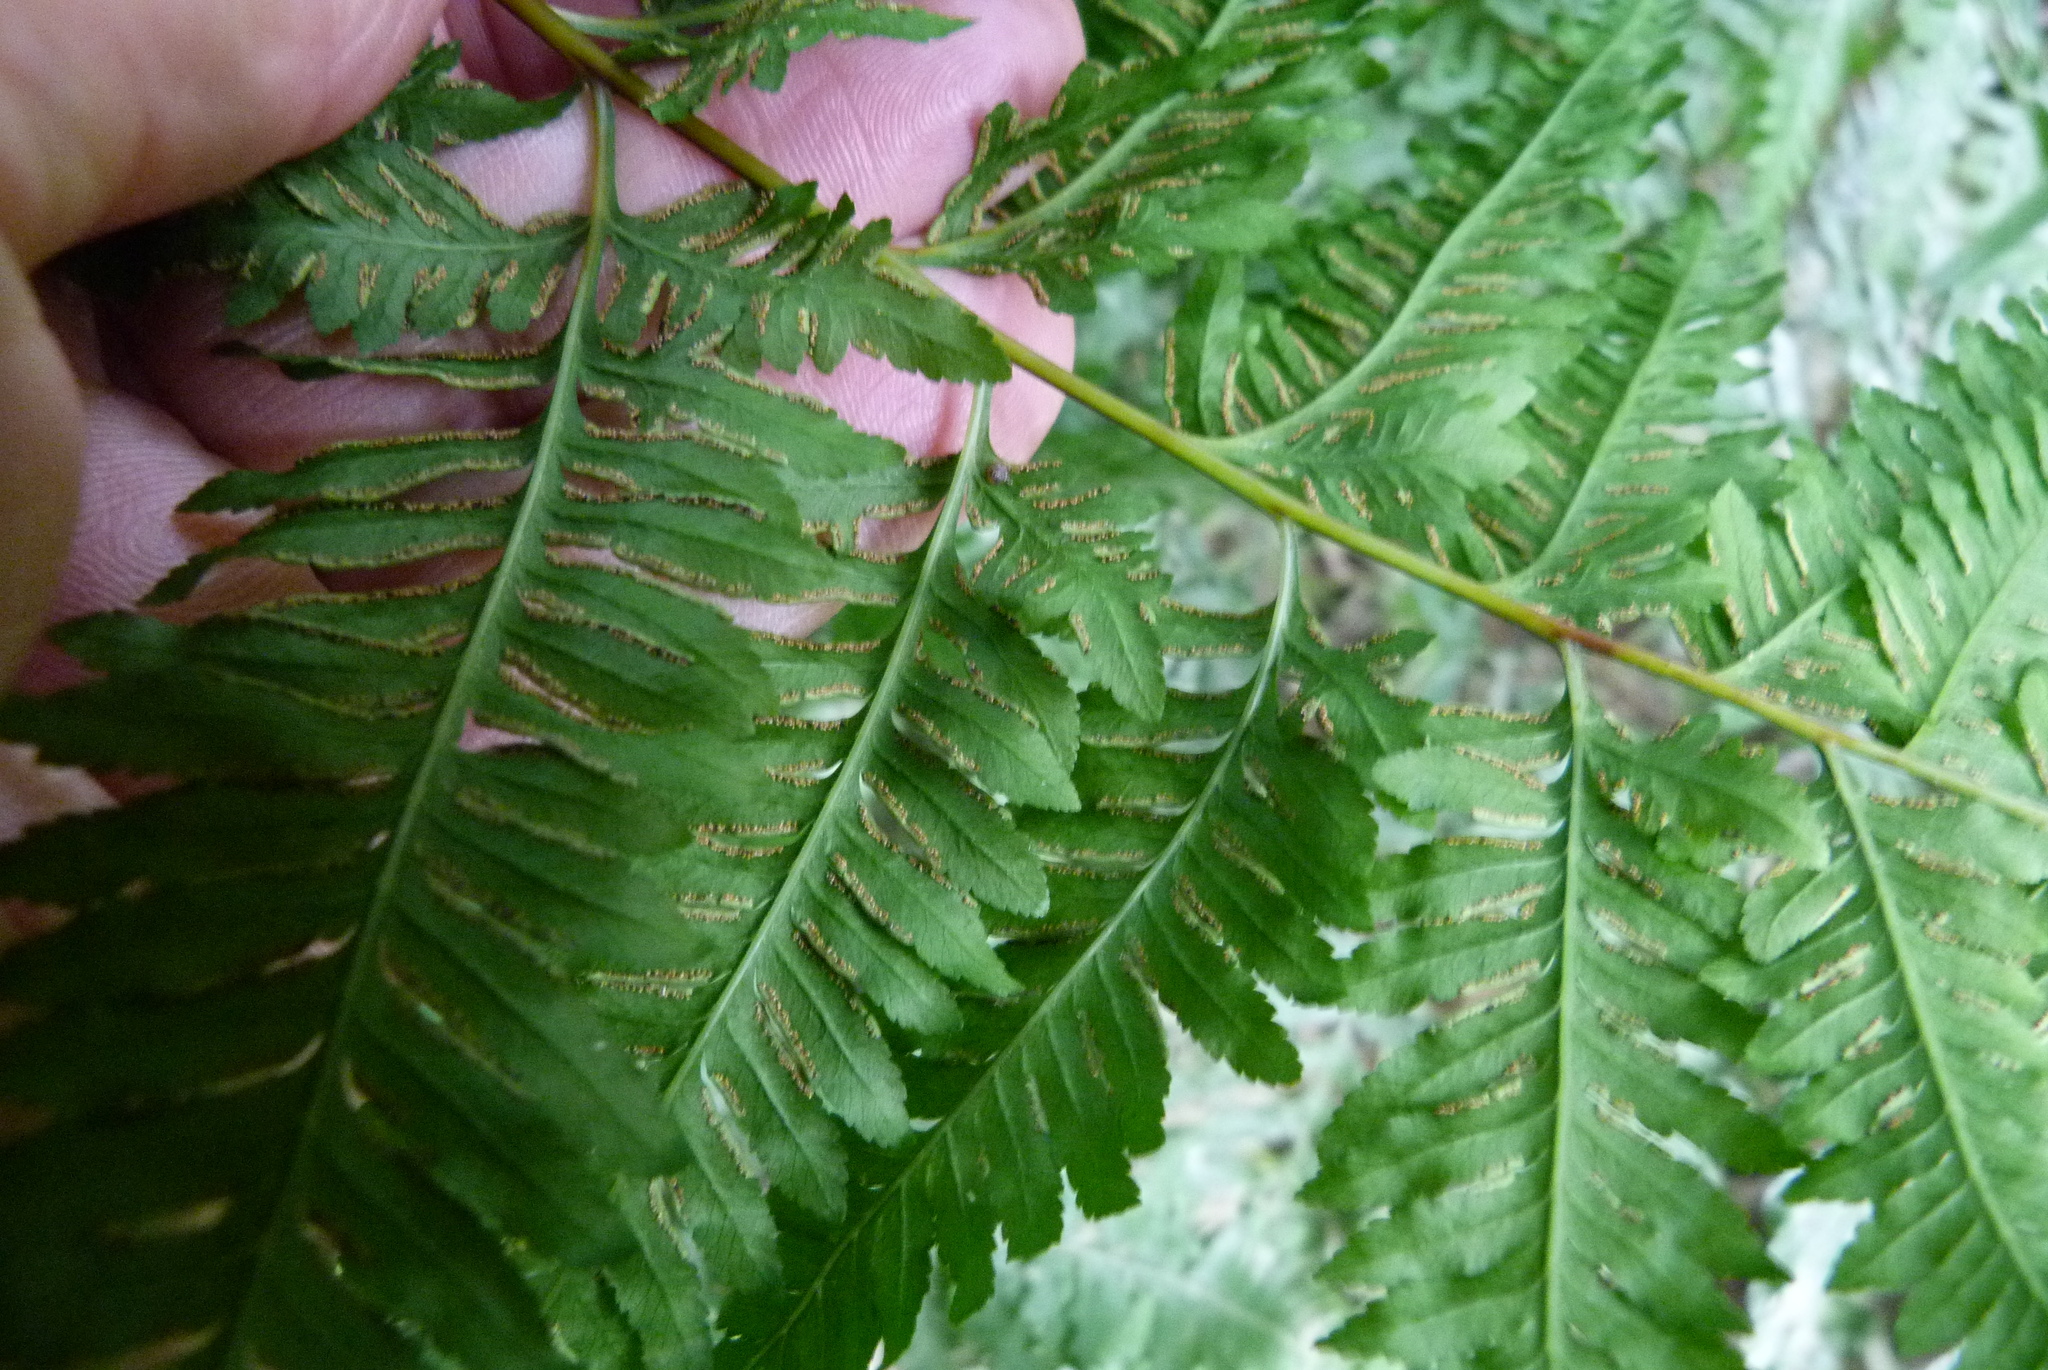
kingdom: Plantae
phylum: Tracheophyta
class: Polypodiopsida
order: Polypodiales
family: Pteridaceae
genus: Pteris
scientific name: Pteris tremula
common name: Australian brake
